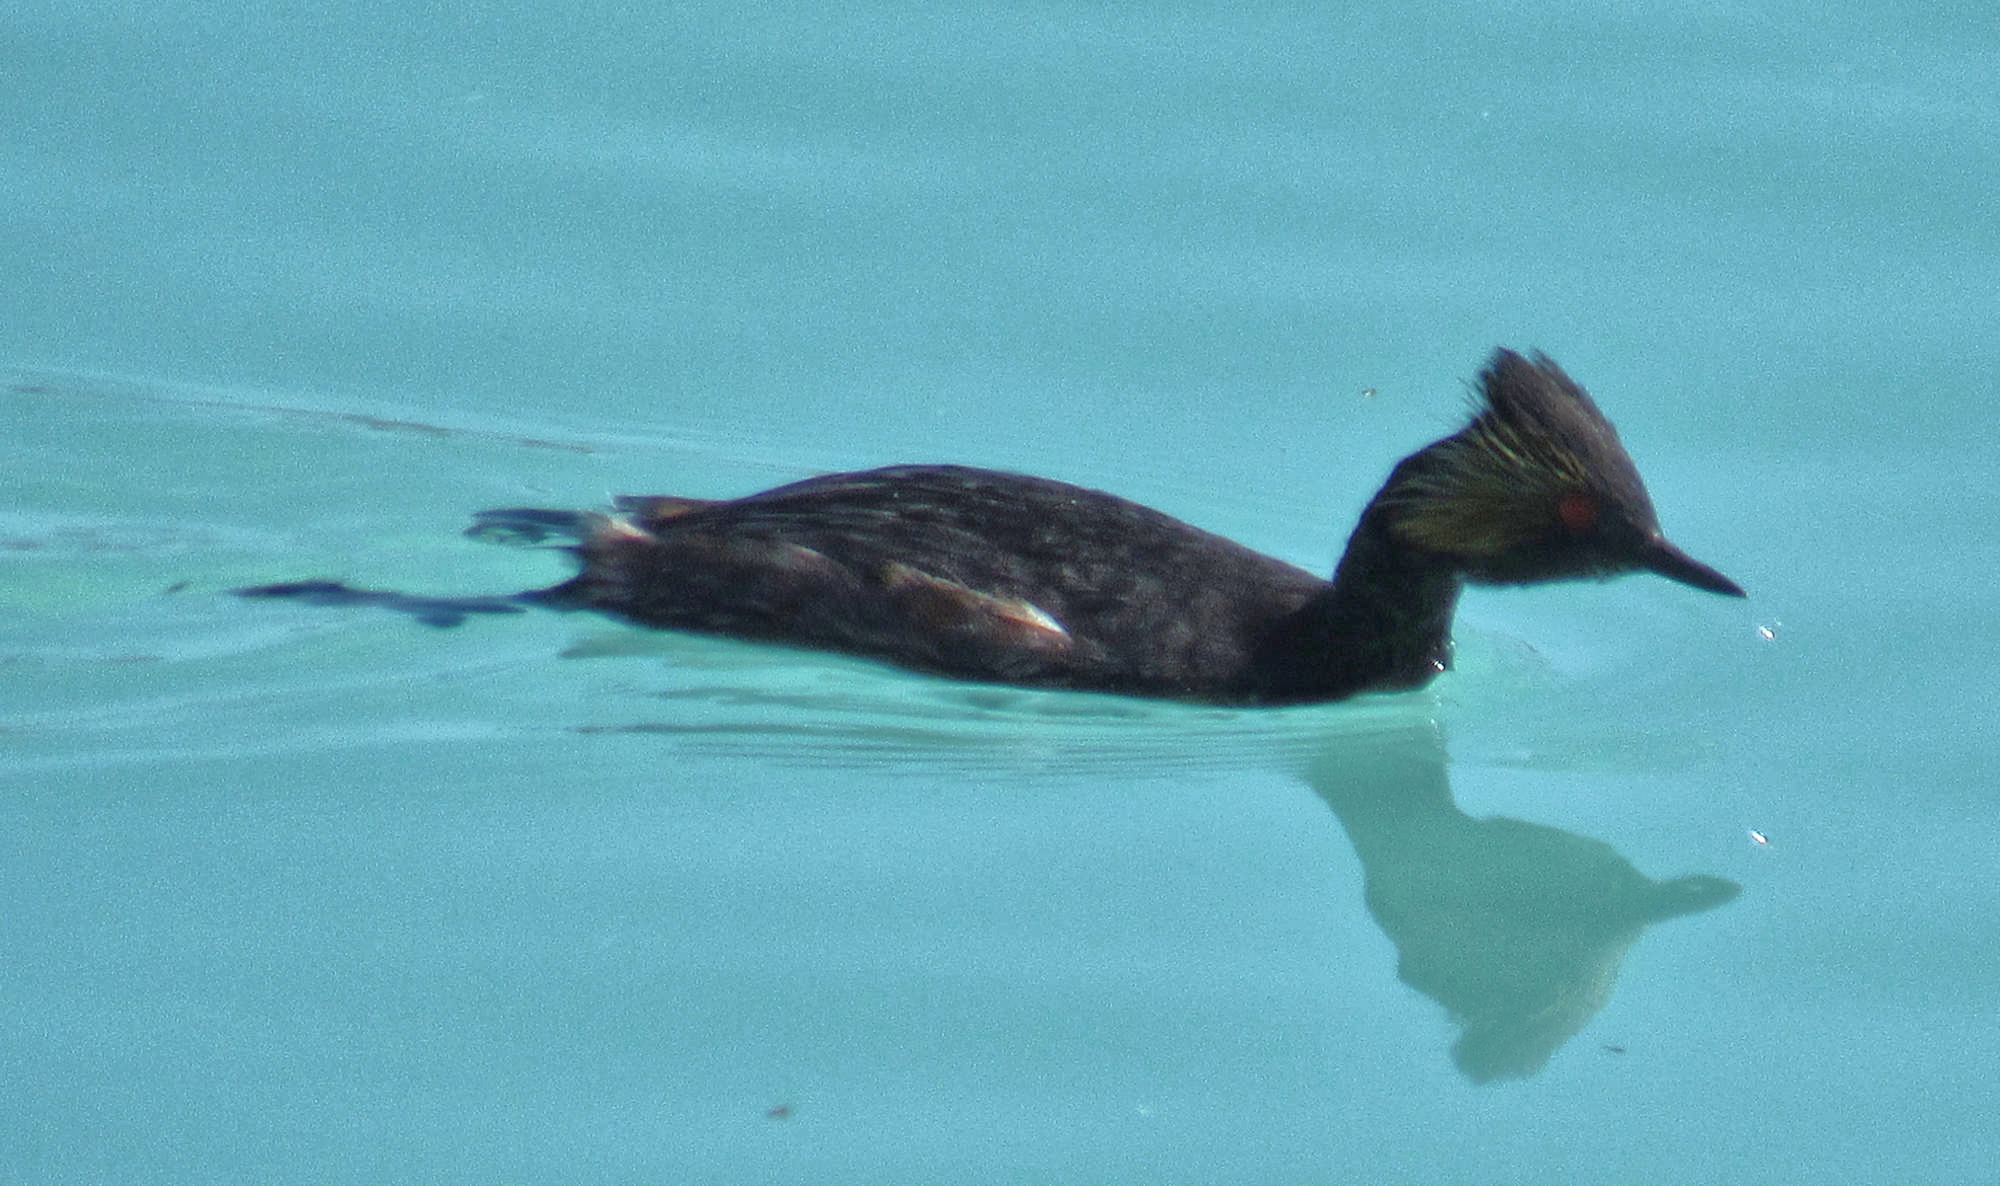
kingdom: Animalia
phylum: Chordata
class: Aves
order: Podicipediformes
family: Podicipedidae
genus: Podiceps
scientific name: Podiceps nigricollis
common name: Black-necked grebe
